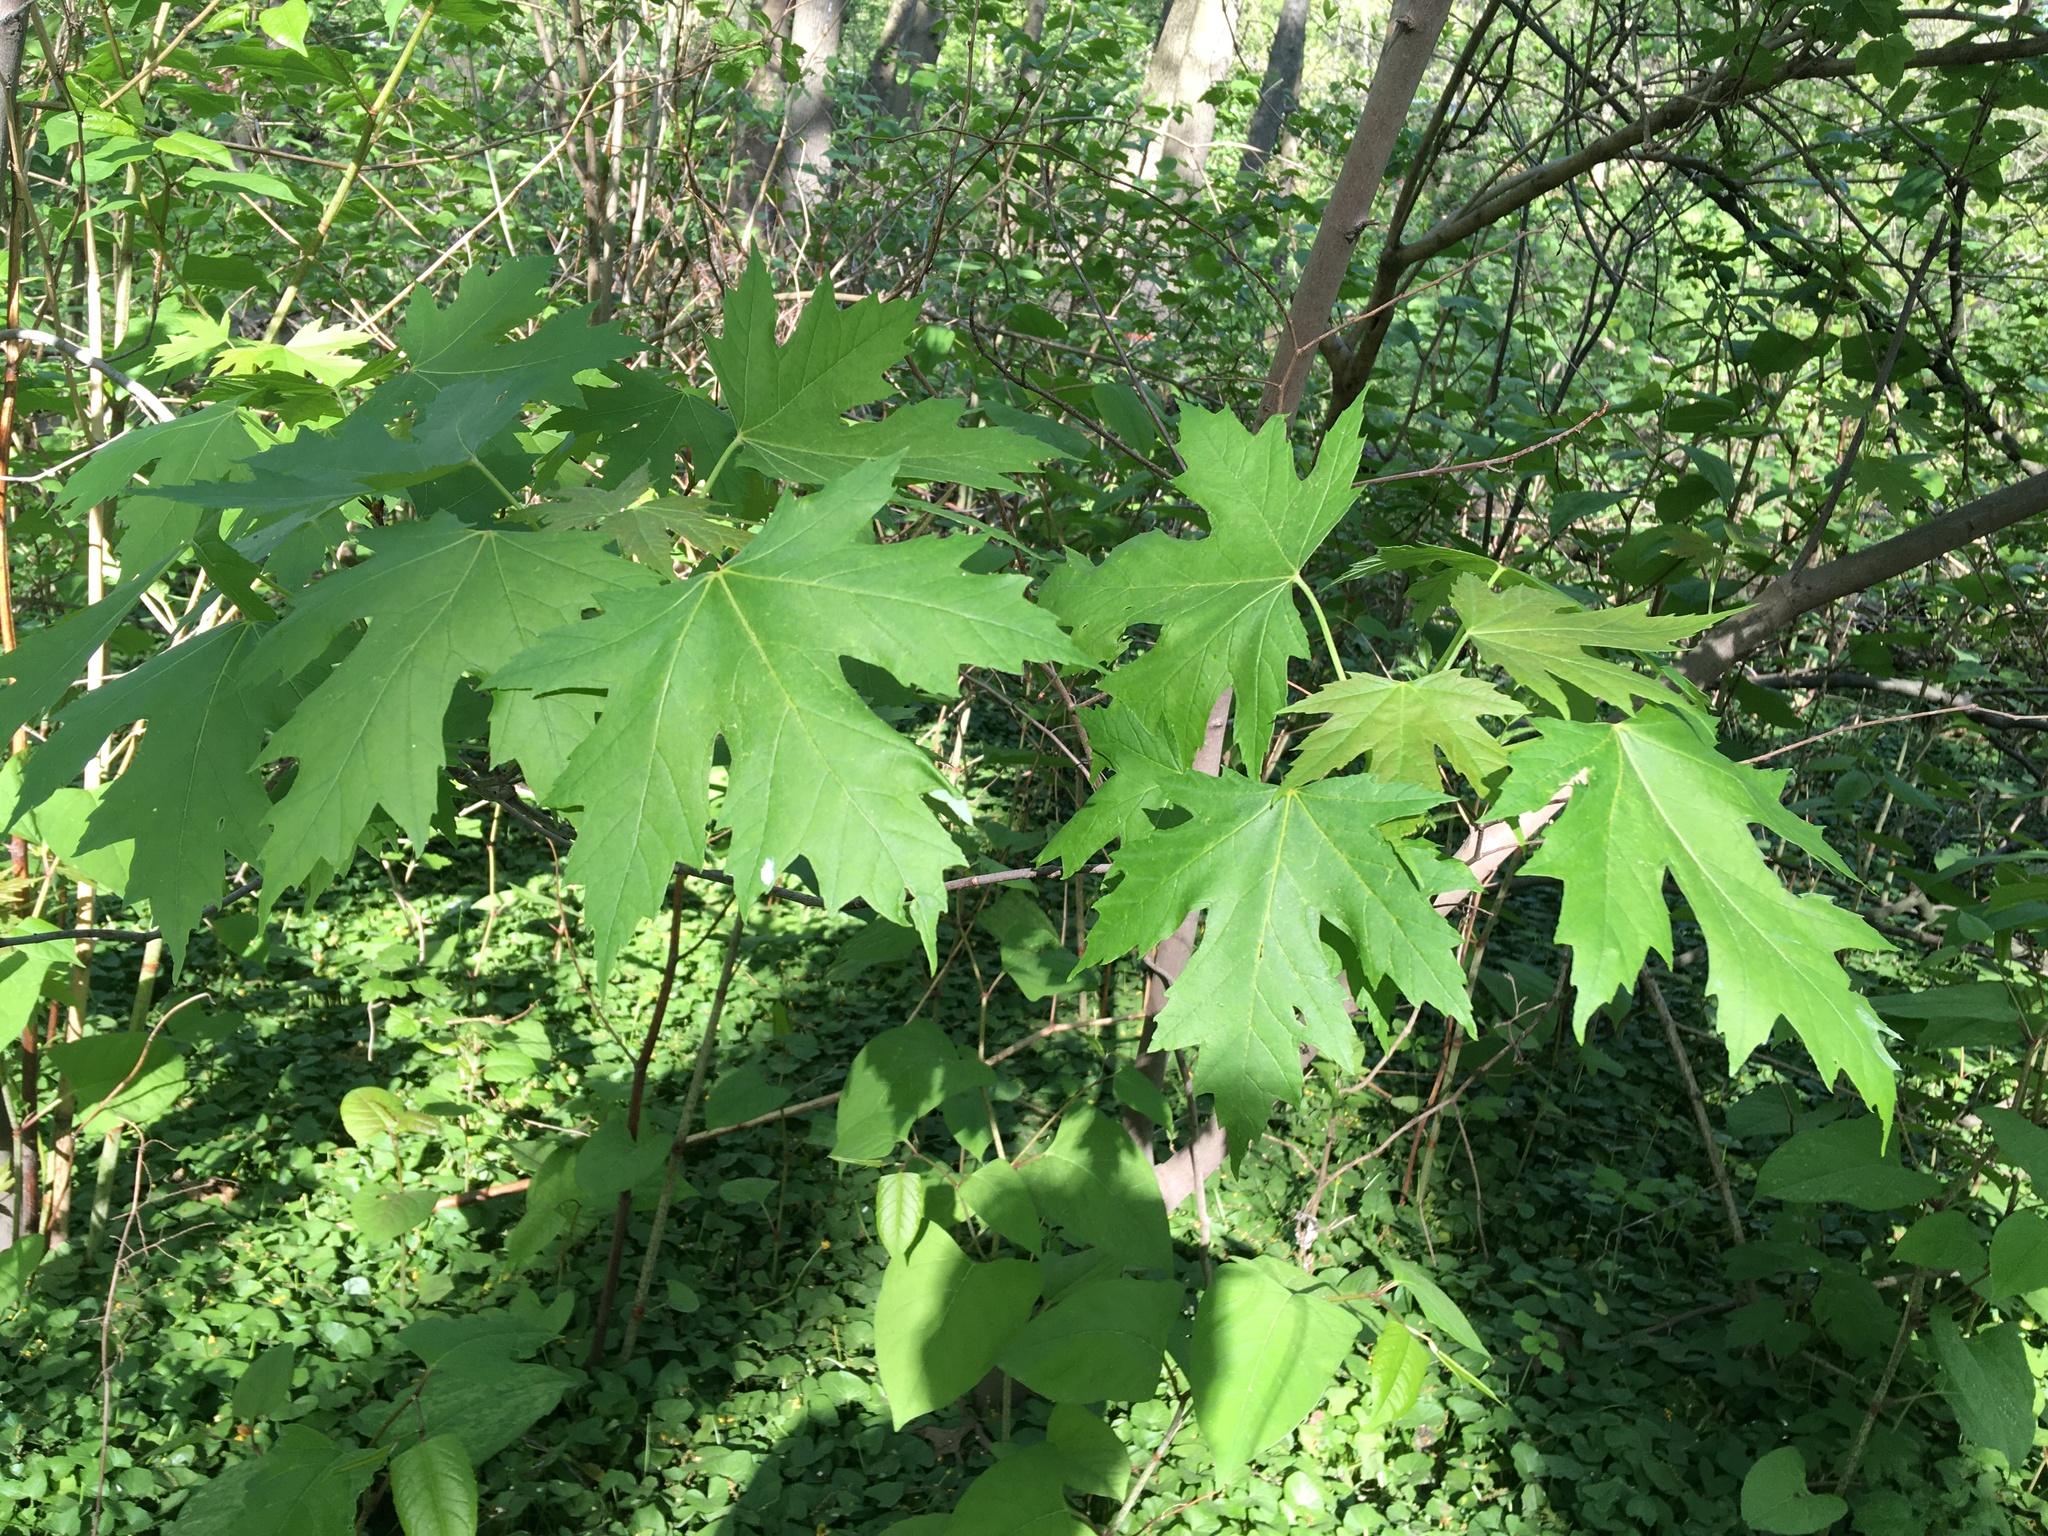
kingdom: Plantae
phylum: Tracheophyta
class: Magnoliopsida
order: Sapindales
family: Sapindaceae
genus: Acer
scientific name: Acer saccharinum
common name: Silver maple
